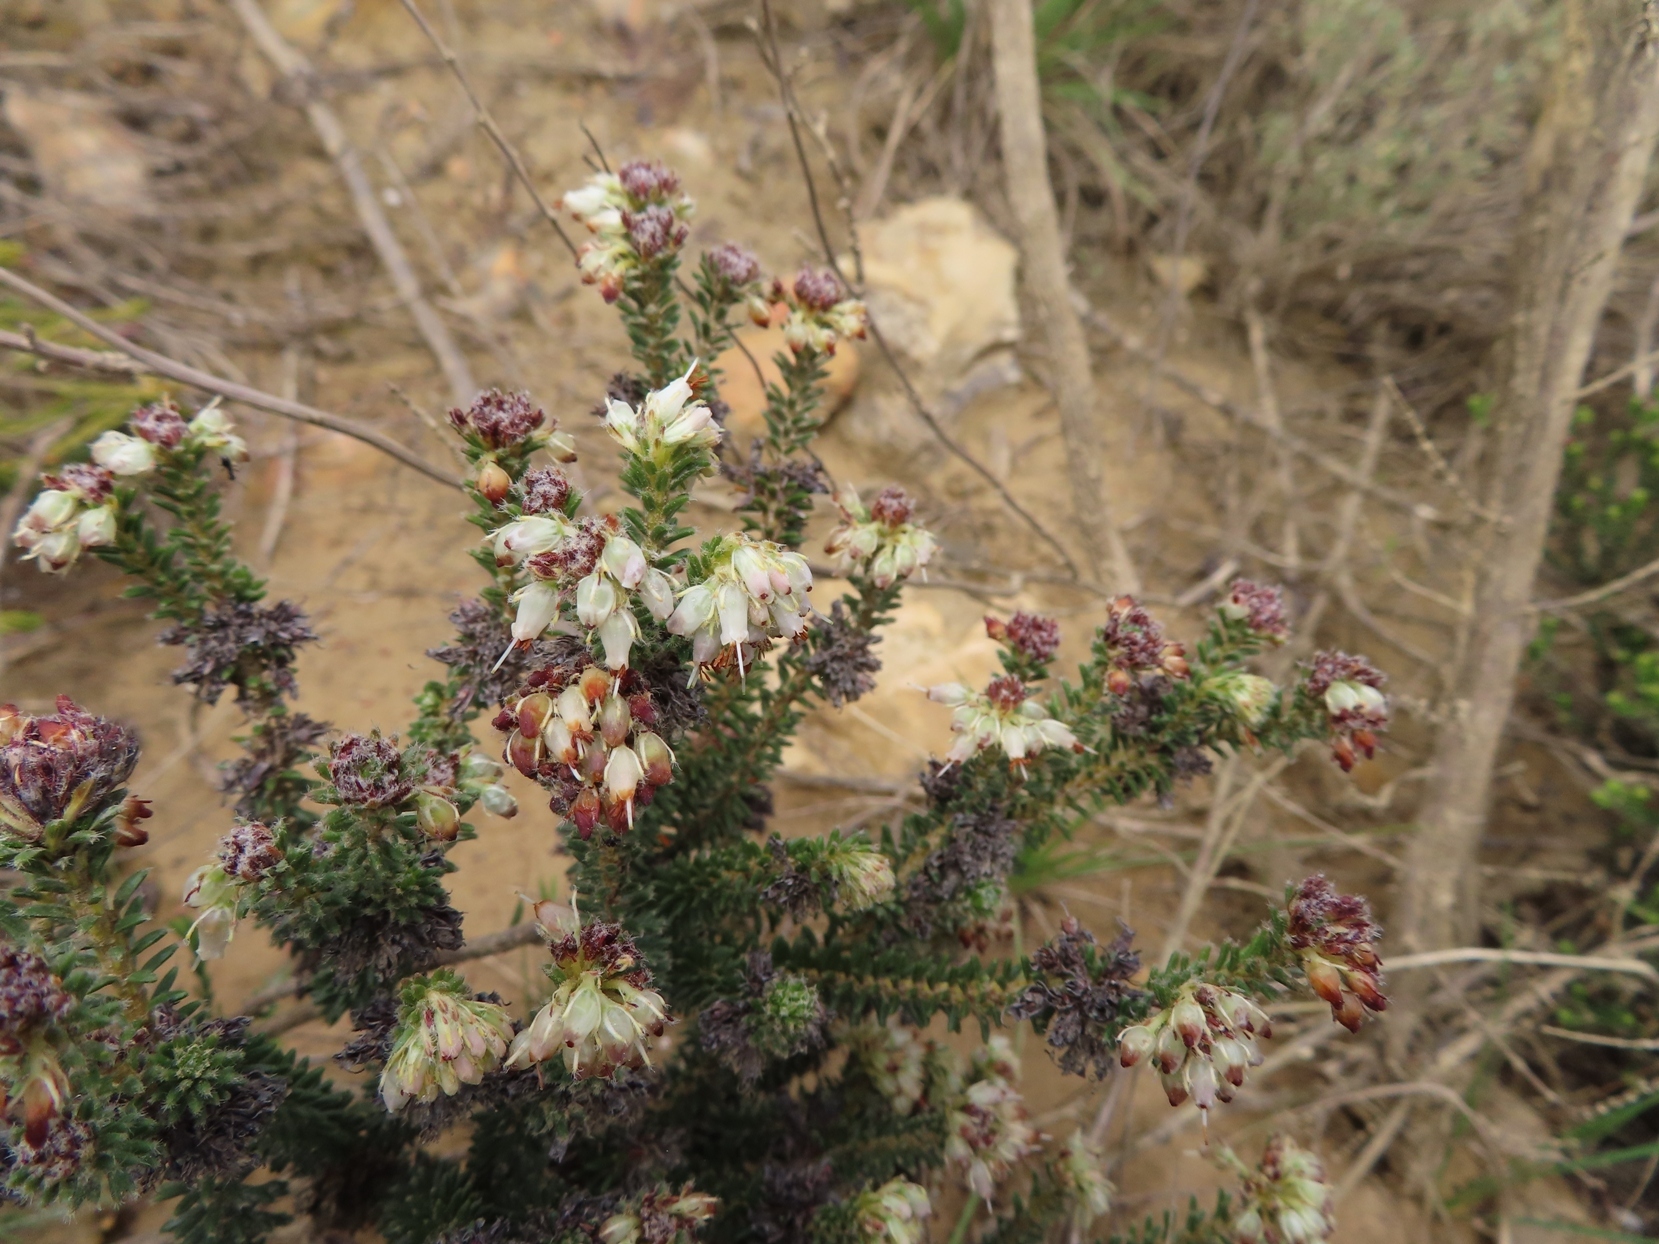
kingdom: Plantae
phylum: Tracheophyta
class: Magnoliopsida
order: Ericales
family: Ericaceae
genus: Erica
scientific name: Erica bruniifolia
